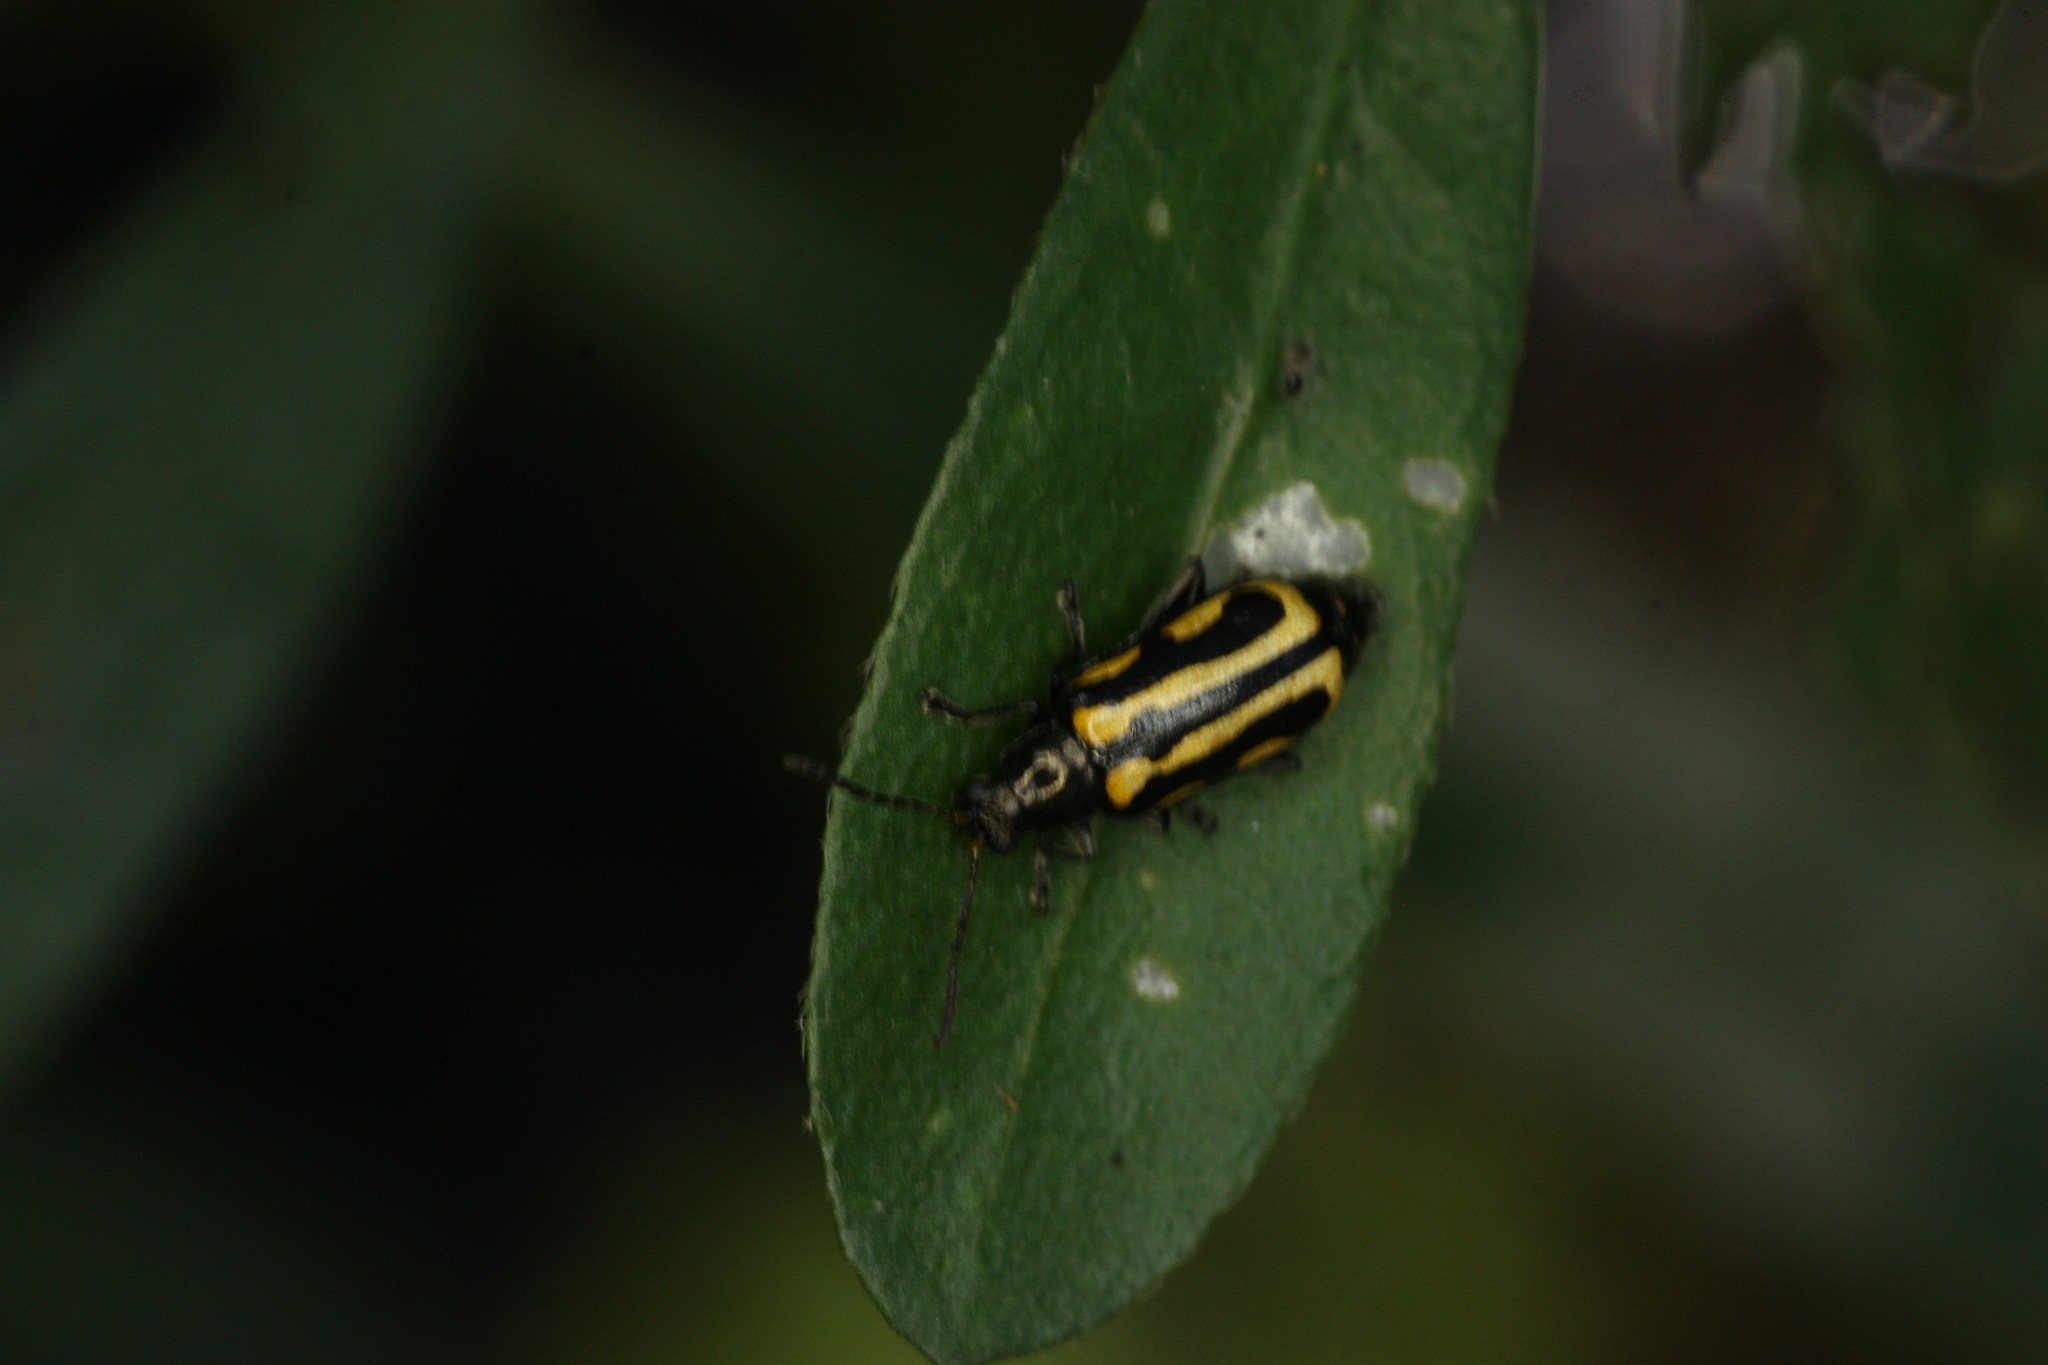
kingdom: Animalia
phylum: Arthropoda
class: Insecta
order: Coleoptera
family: Chrysomelidae
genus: Agasicles
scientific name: Agasicles hygrophila
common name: Alligatorweed flea beetle
